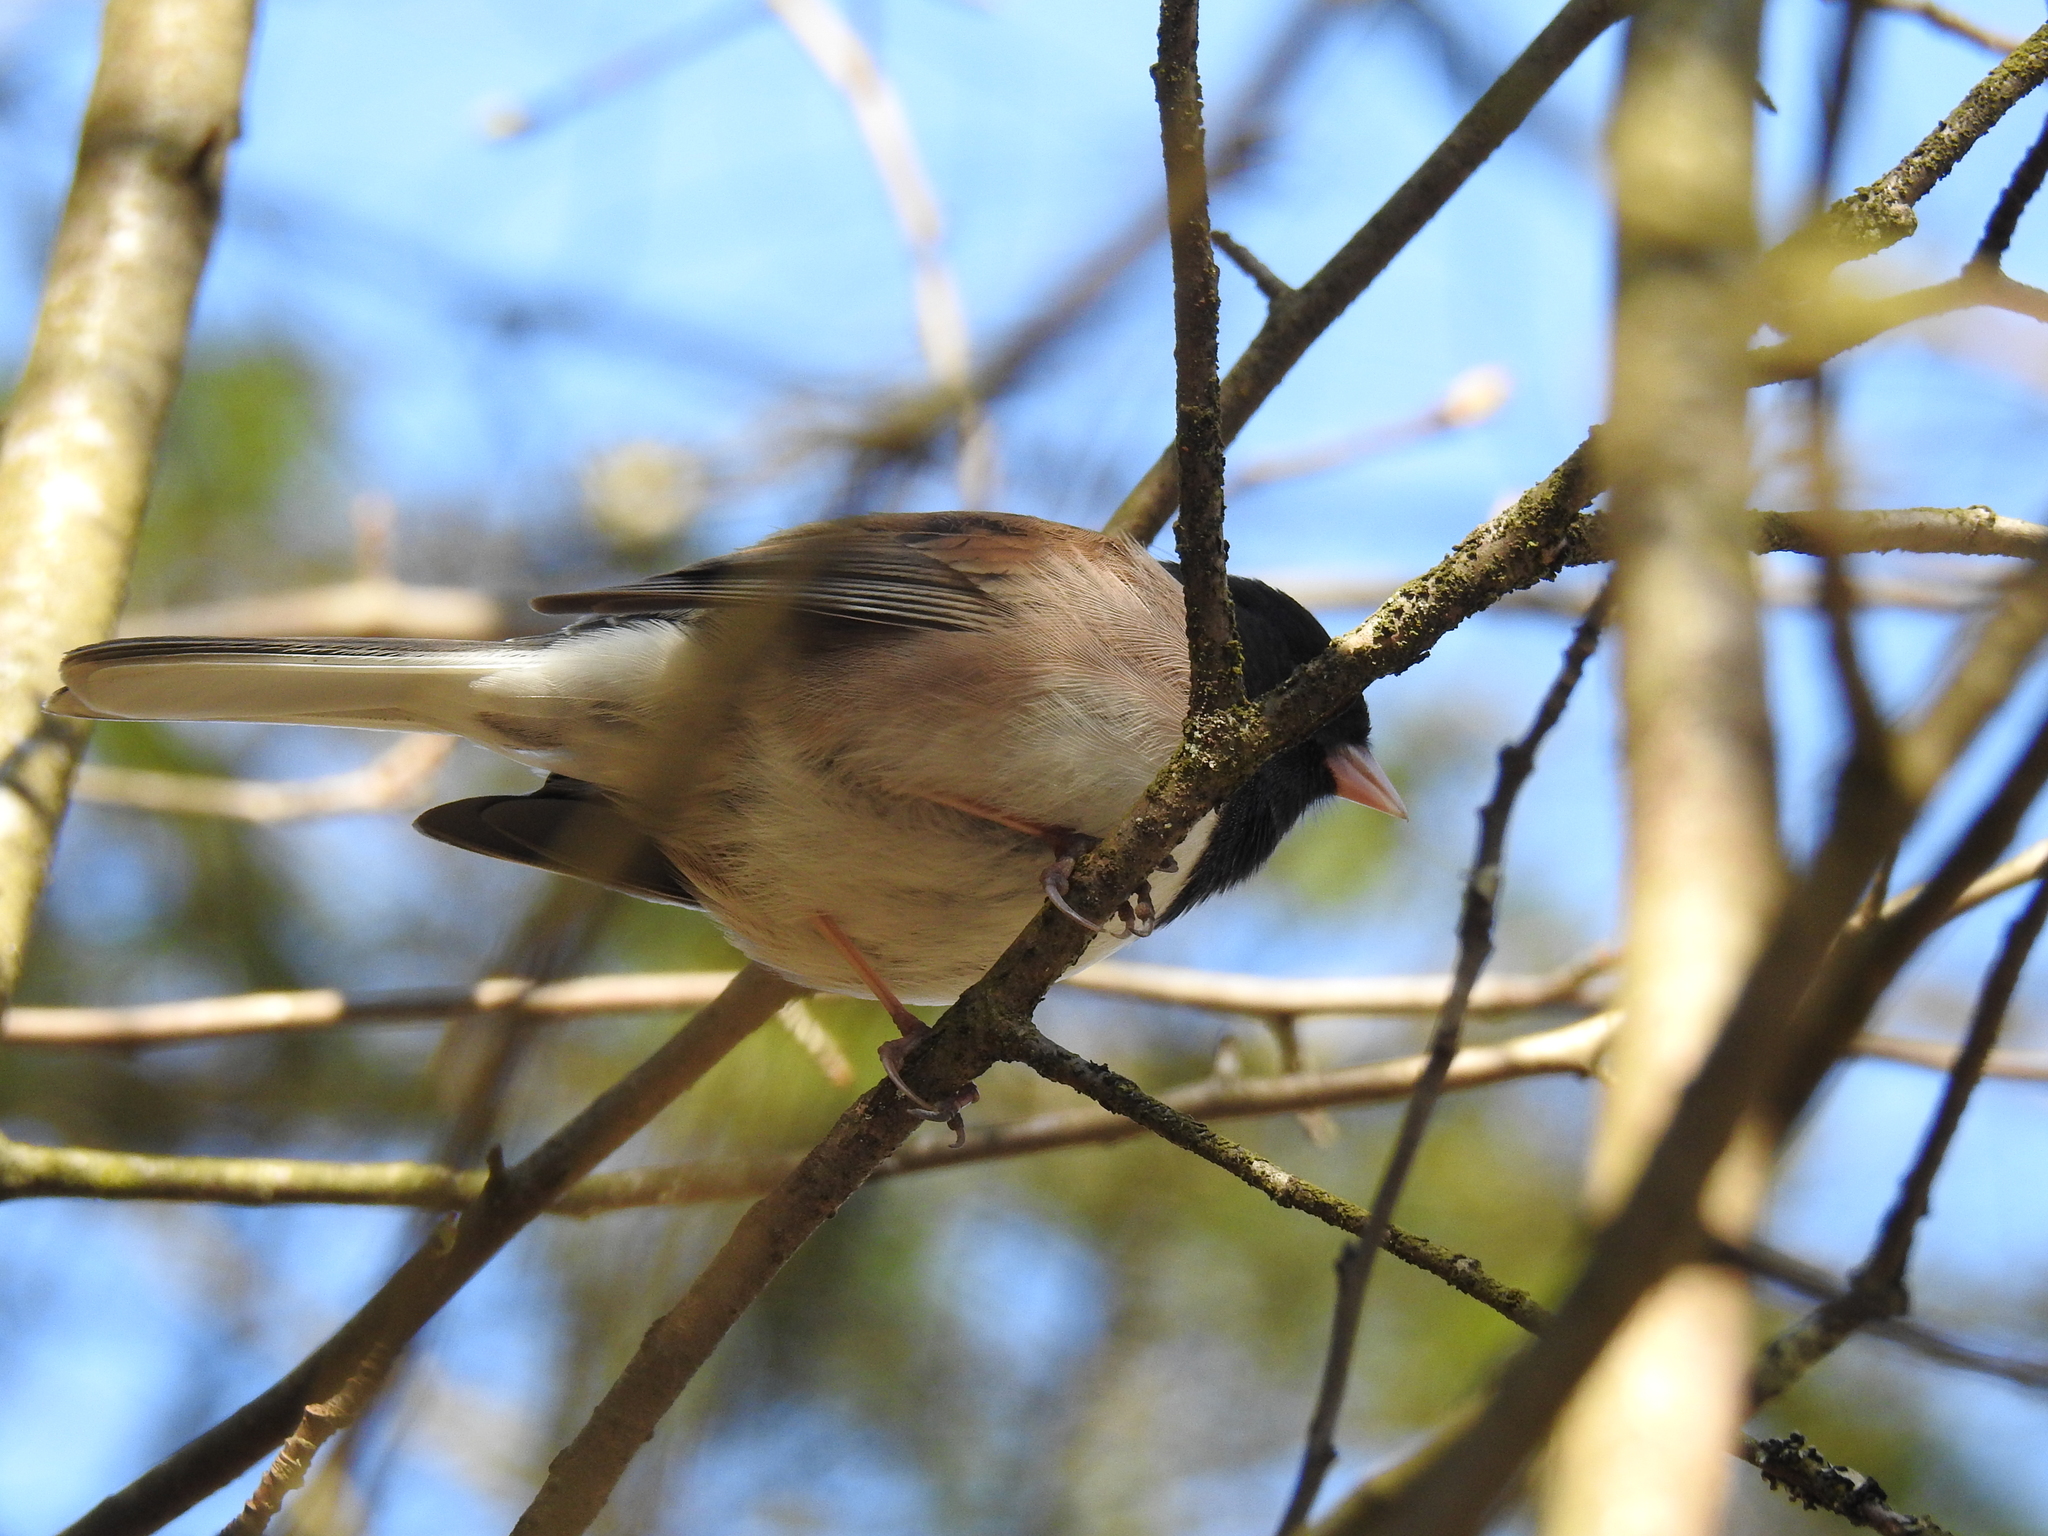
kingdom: Animalia
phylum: Chordata
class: Aves
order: Passeriformes
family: Passerellidae
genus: Junco
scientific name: Junco hyemalis
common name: Dark-eyed junco
